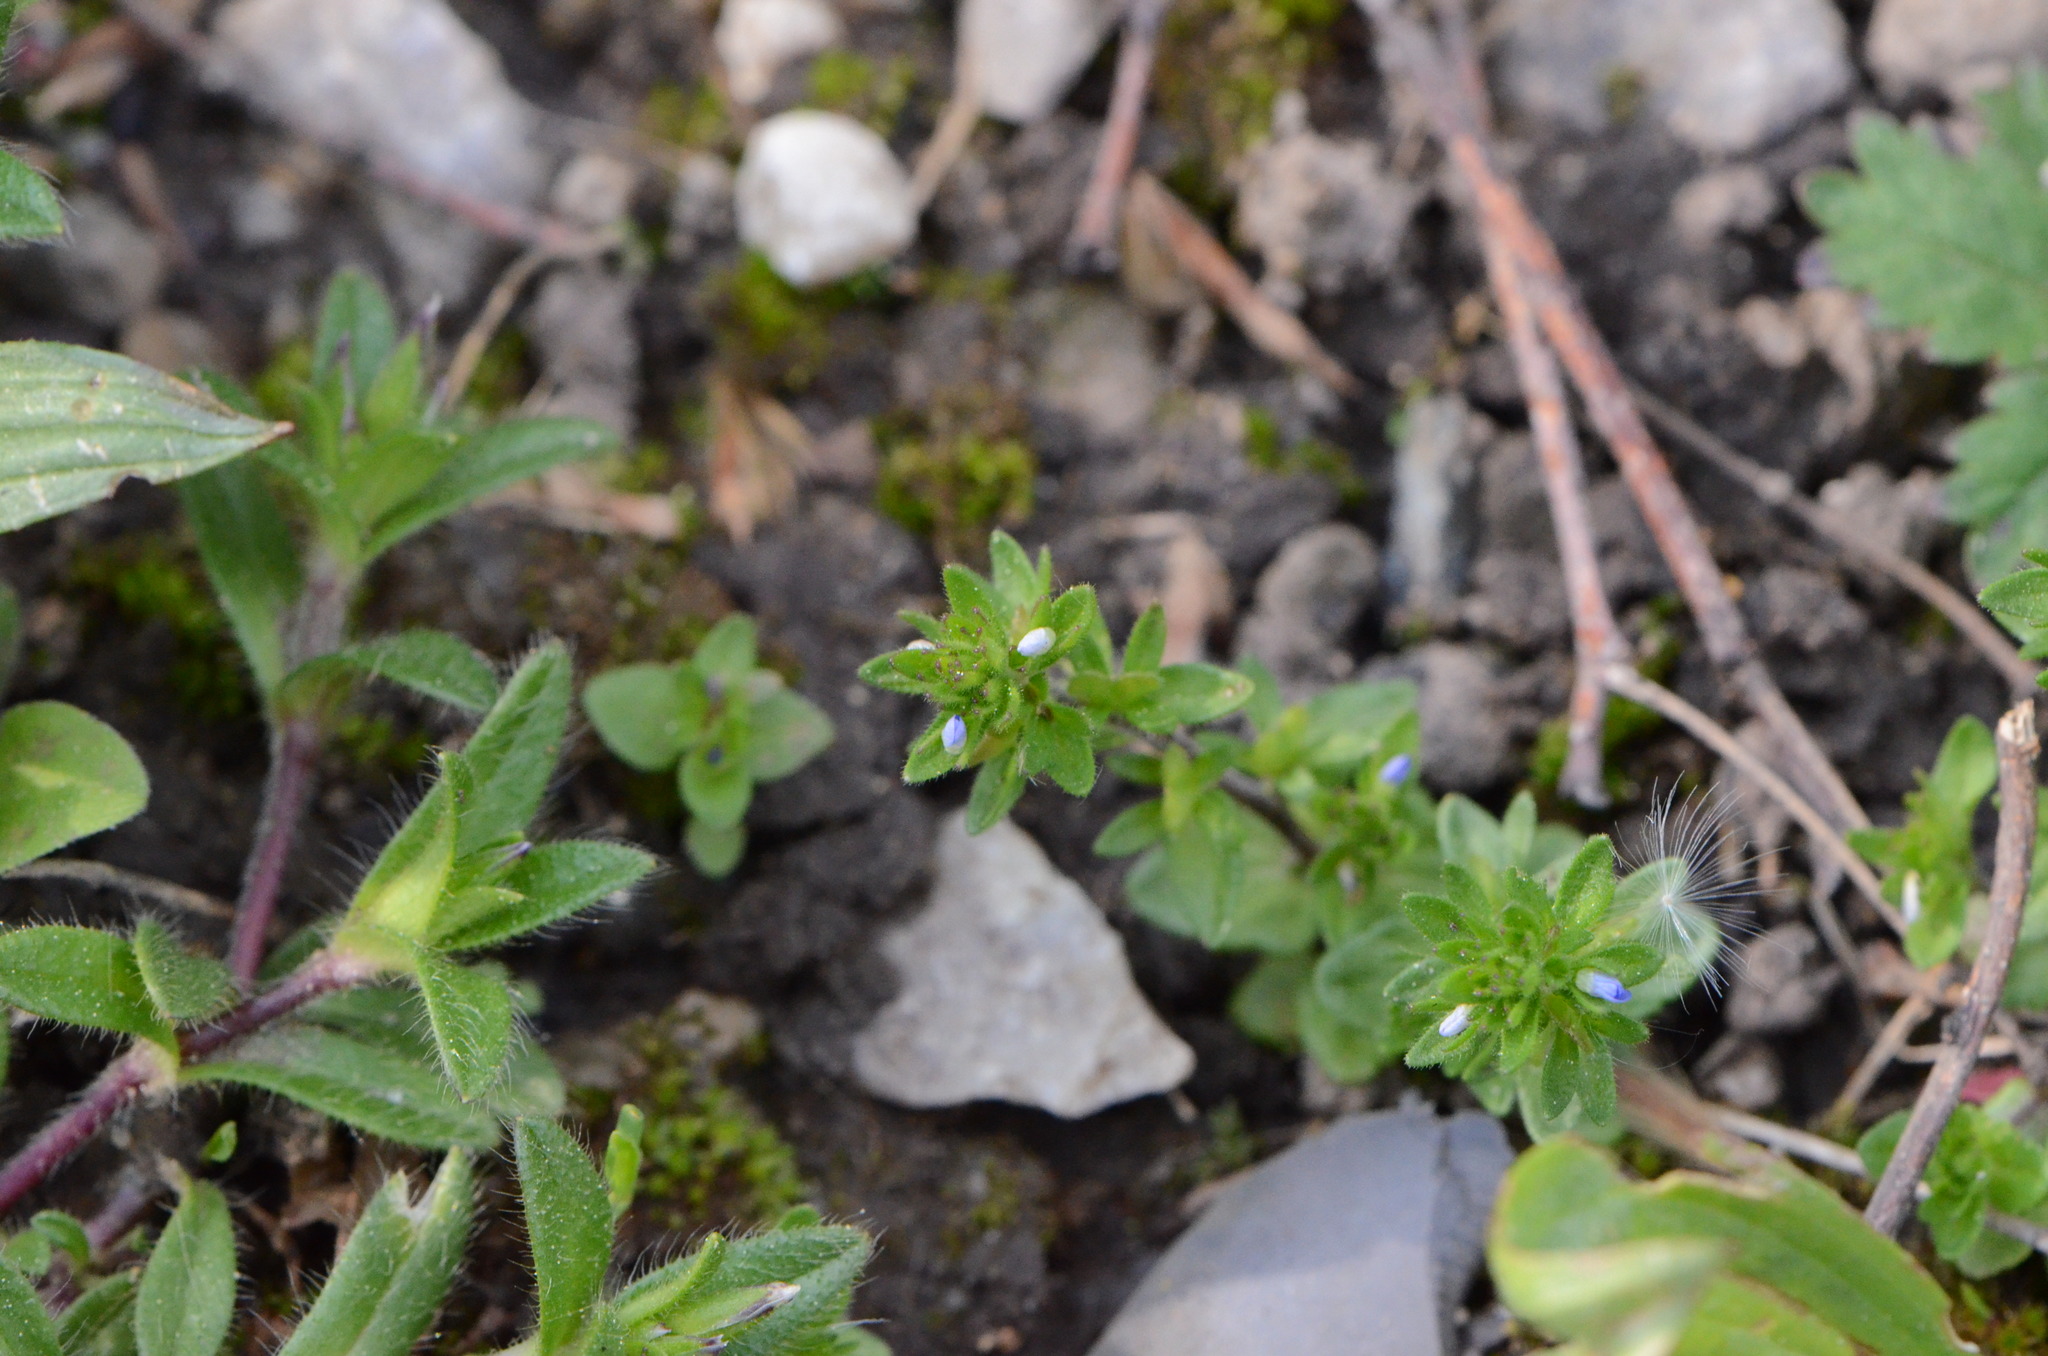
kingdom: Plantae
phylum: Tracheophyta
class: Magnoliopsida
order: Lamiales
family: Plantaginaceae
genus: Veronica
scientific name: Veronica arvensis
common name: Corn speedwell
